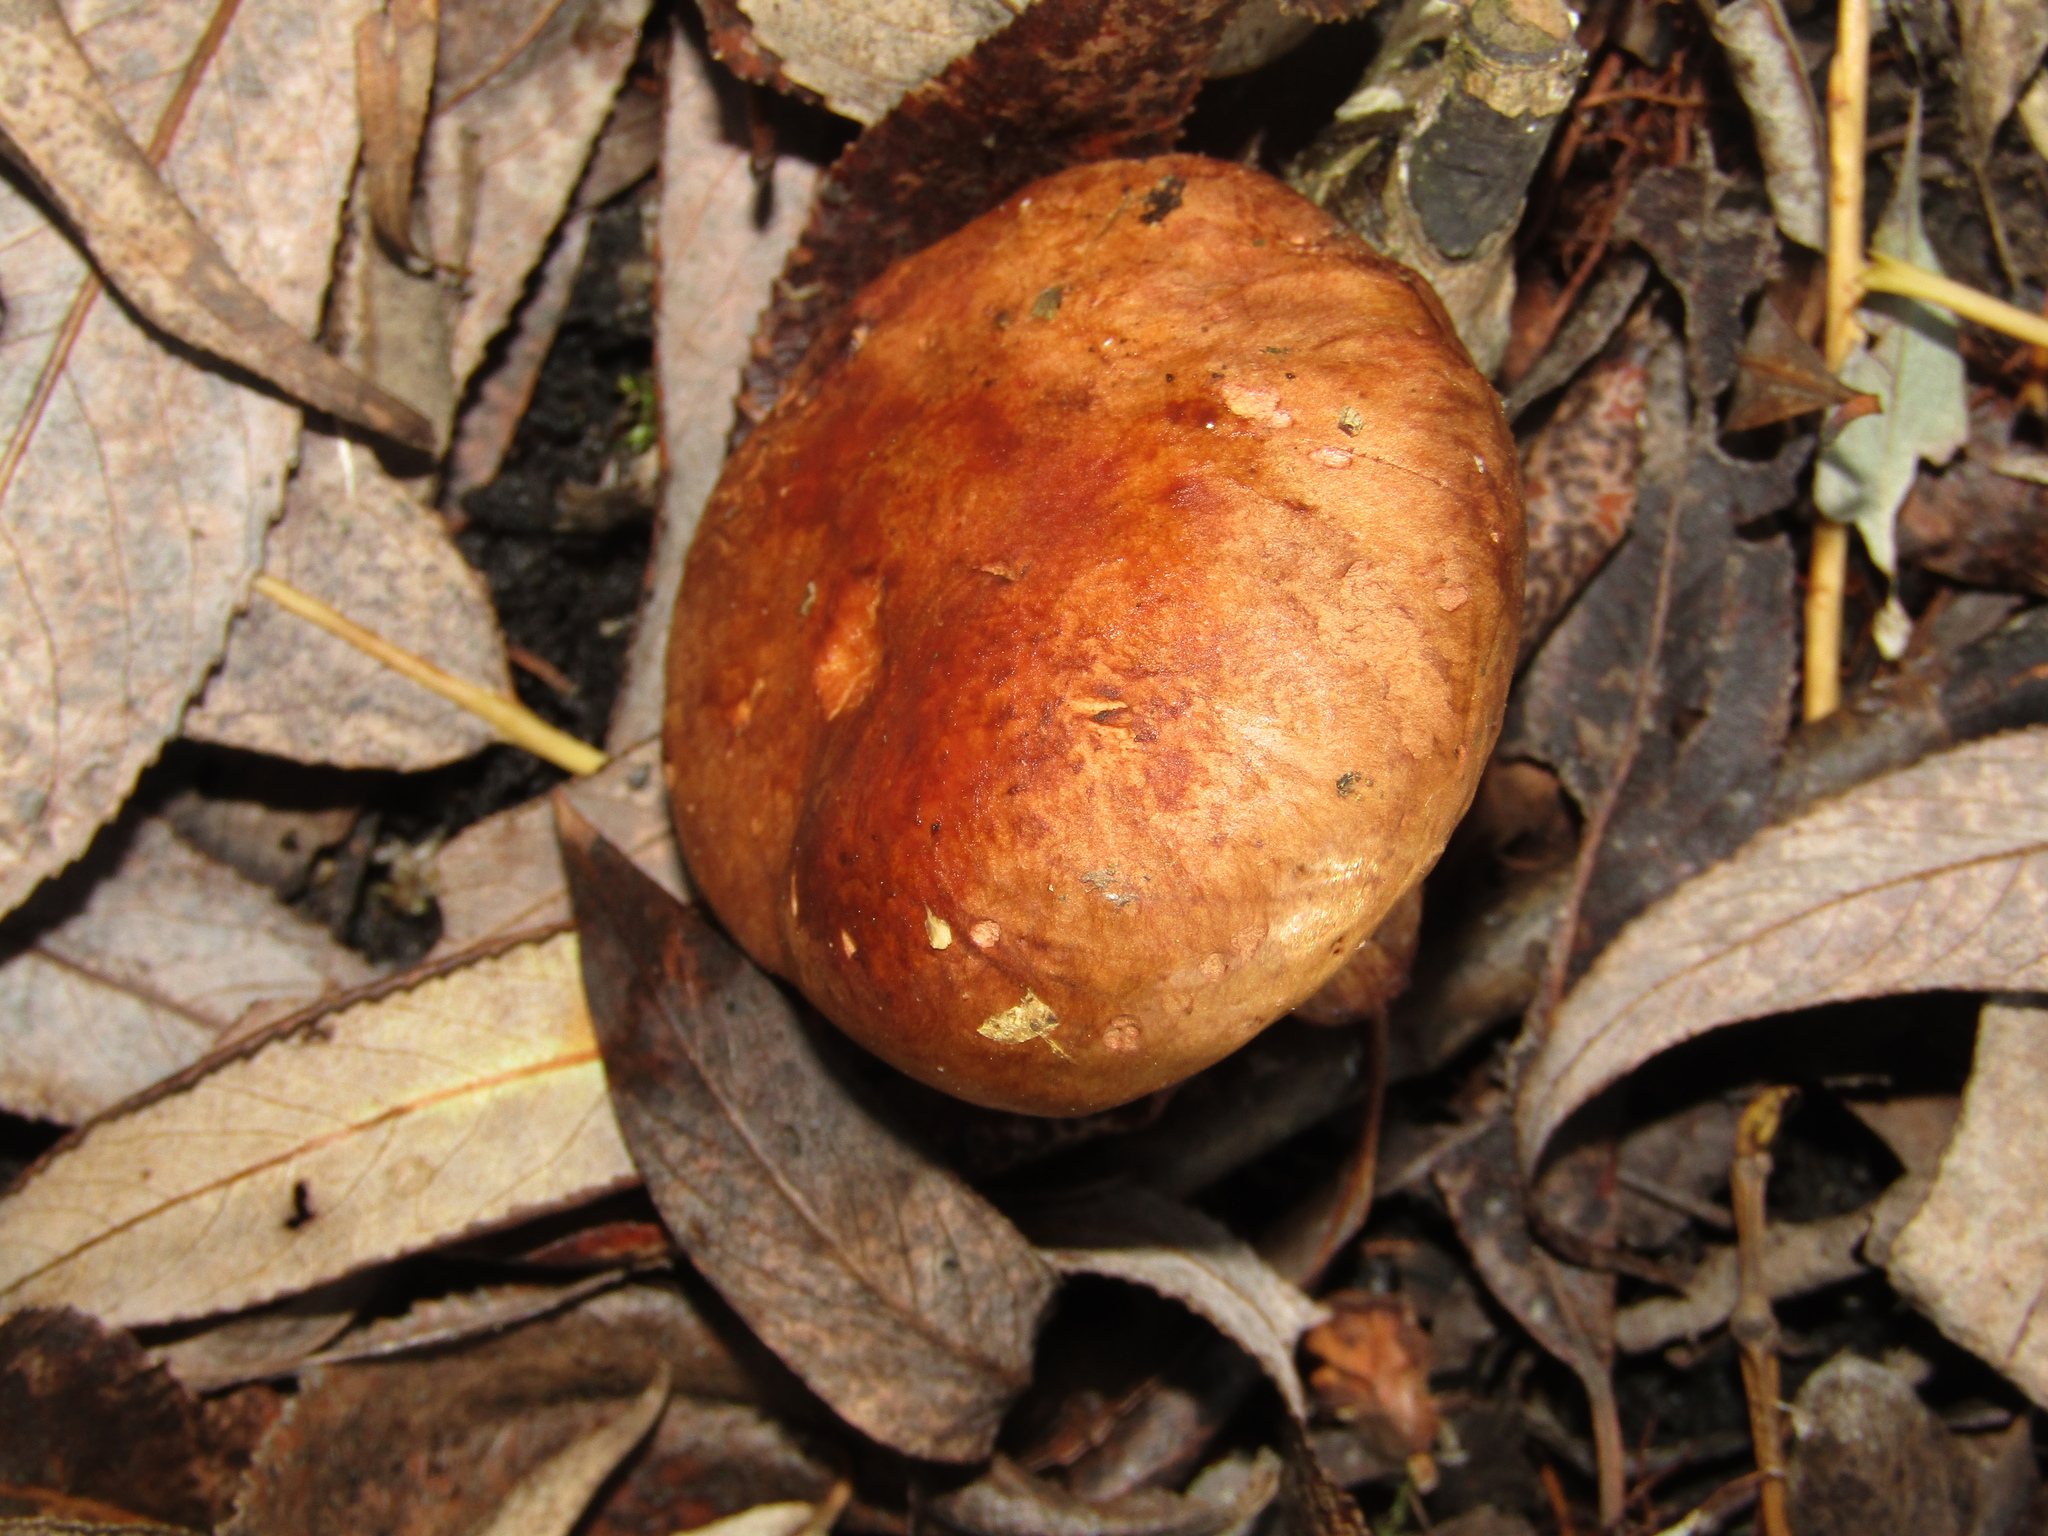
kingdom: Fungi
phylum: Basidiomycota
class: Agaricomycetes
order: Boletales
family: Paxillaceae
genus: Paxillus
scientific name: Paxillus involutus
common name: Brown roll rim
